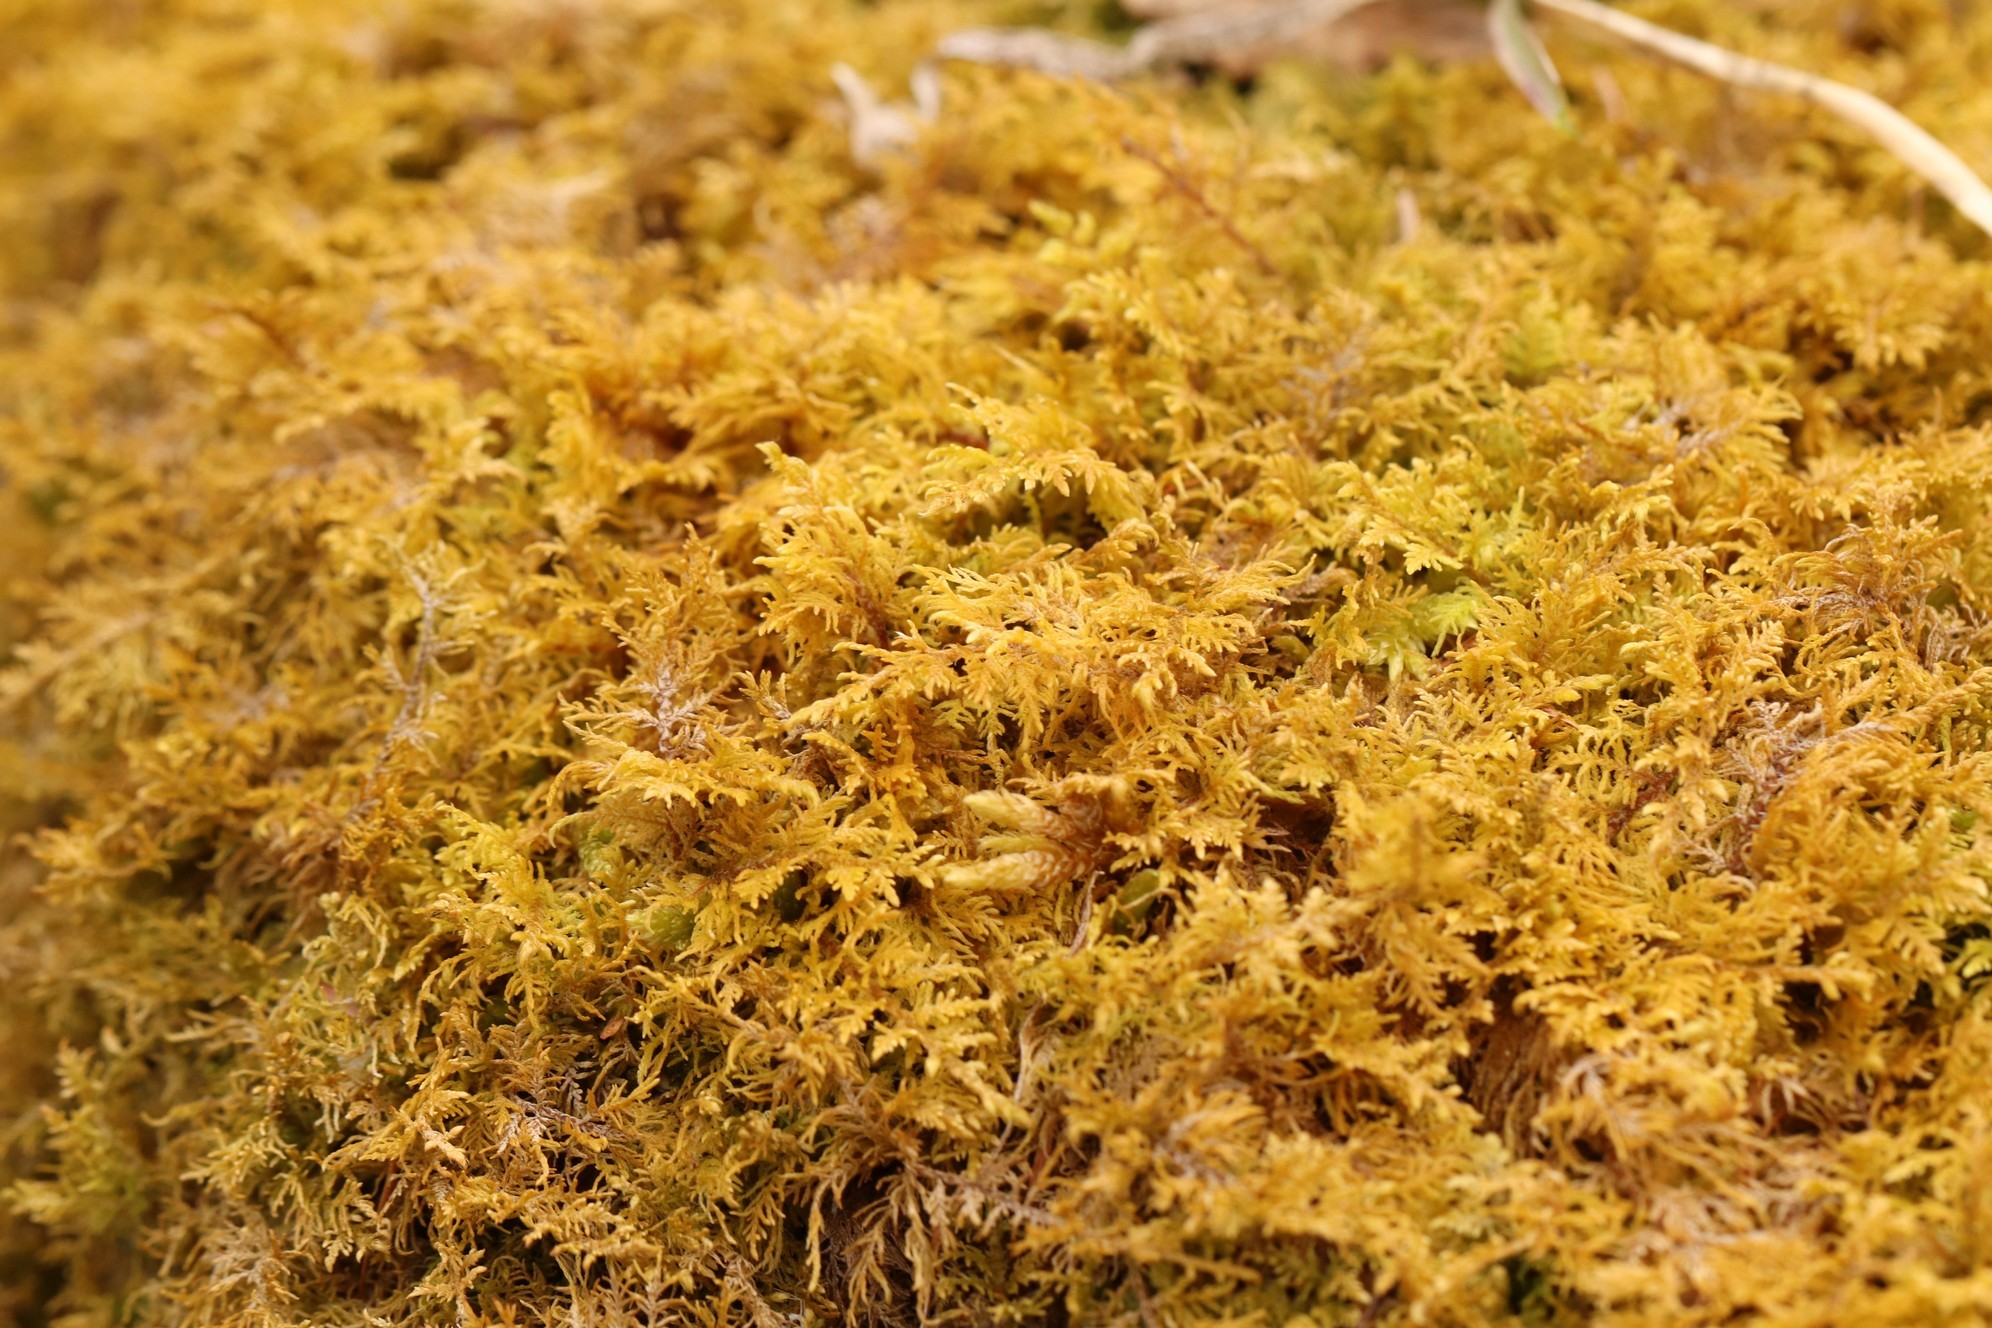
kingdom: Plantae
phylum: Bryophyta
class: Bryopsida
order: Hypnales
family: Hylocomiaceae
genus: Hylocomium
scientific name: Hylocomium splendens
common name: Stairstep moss
